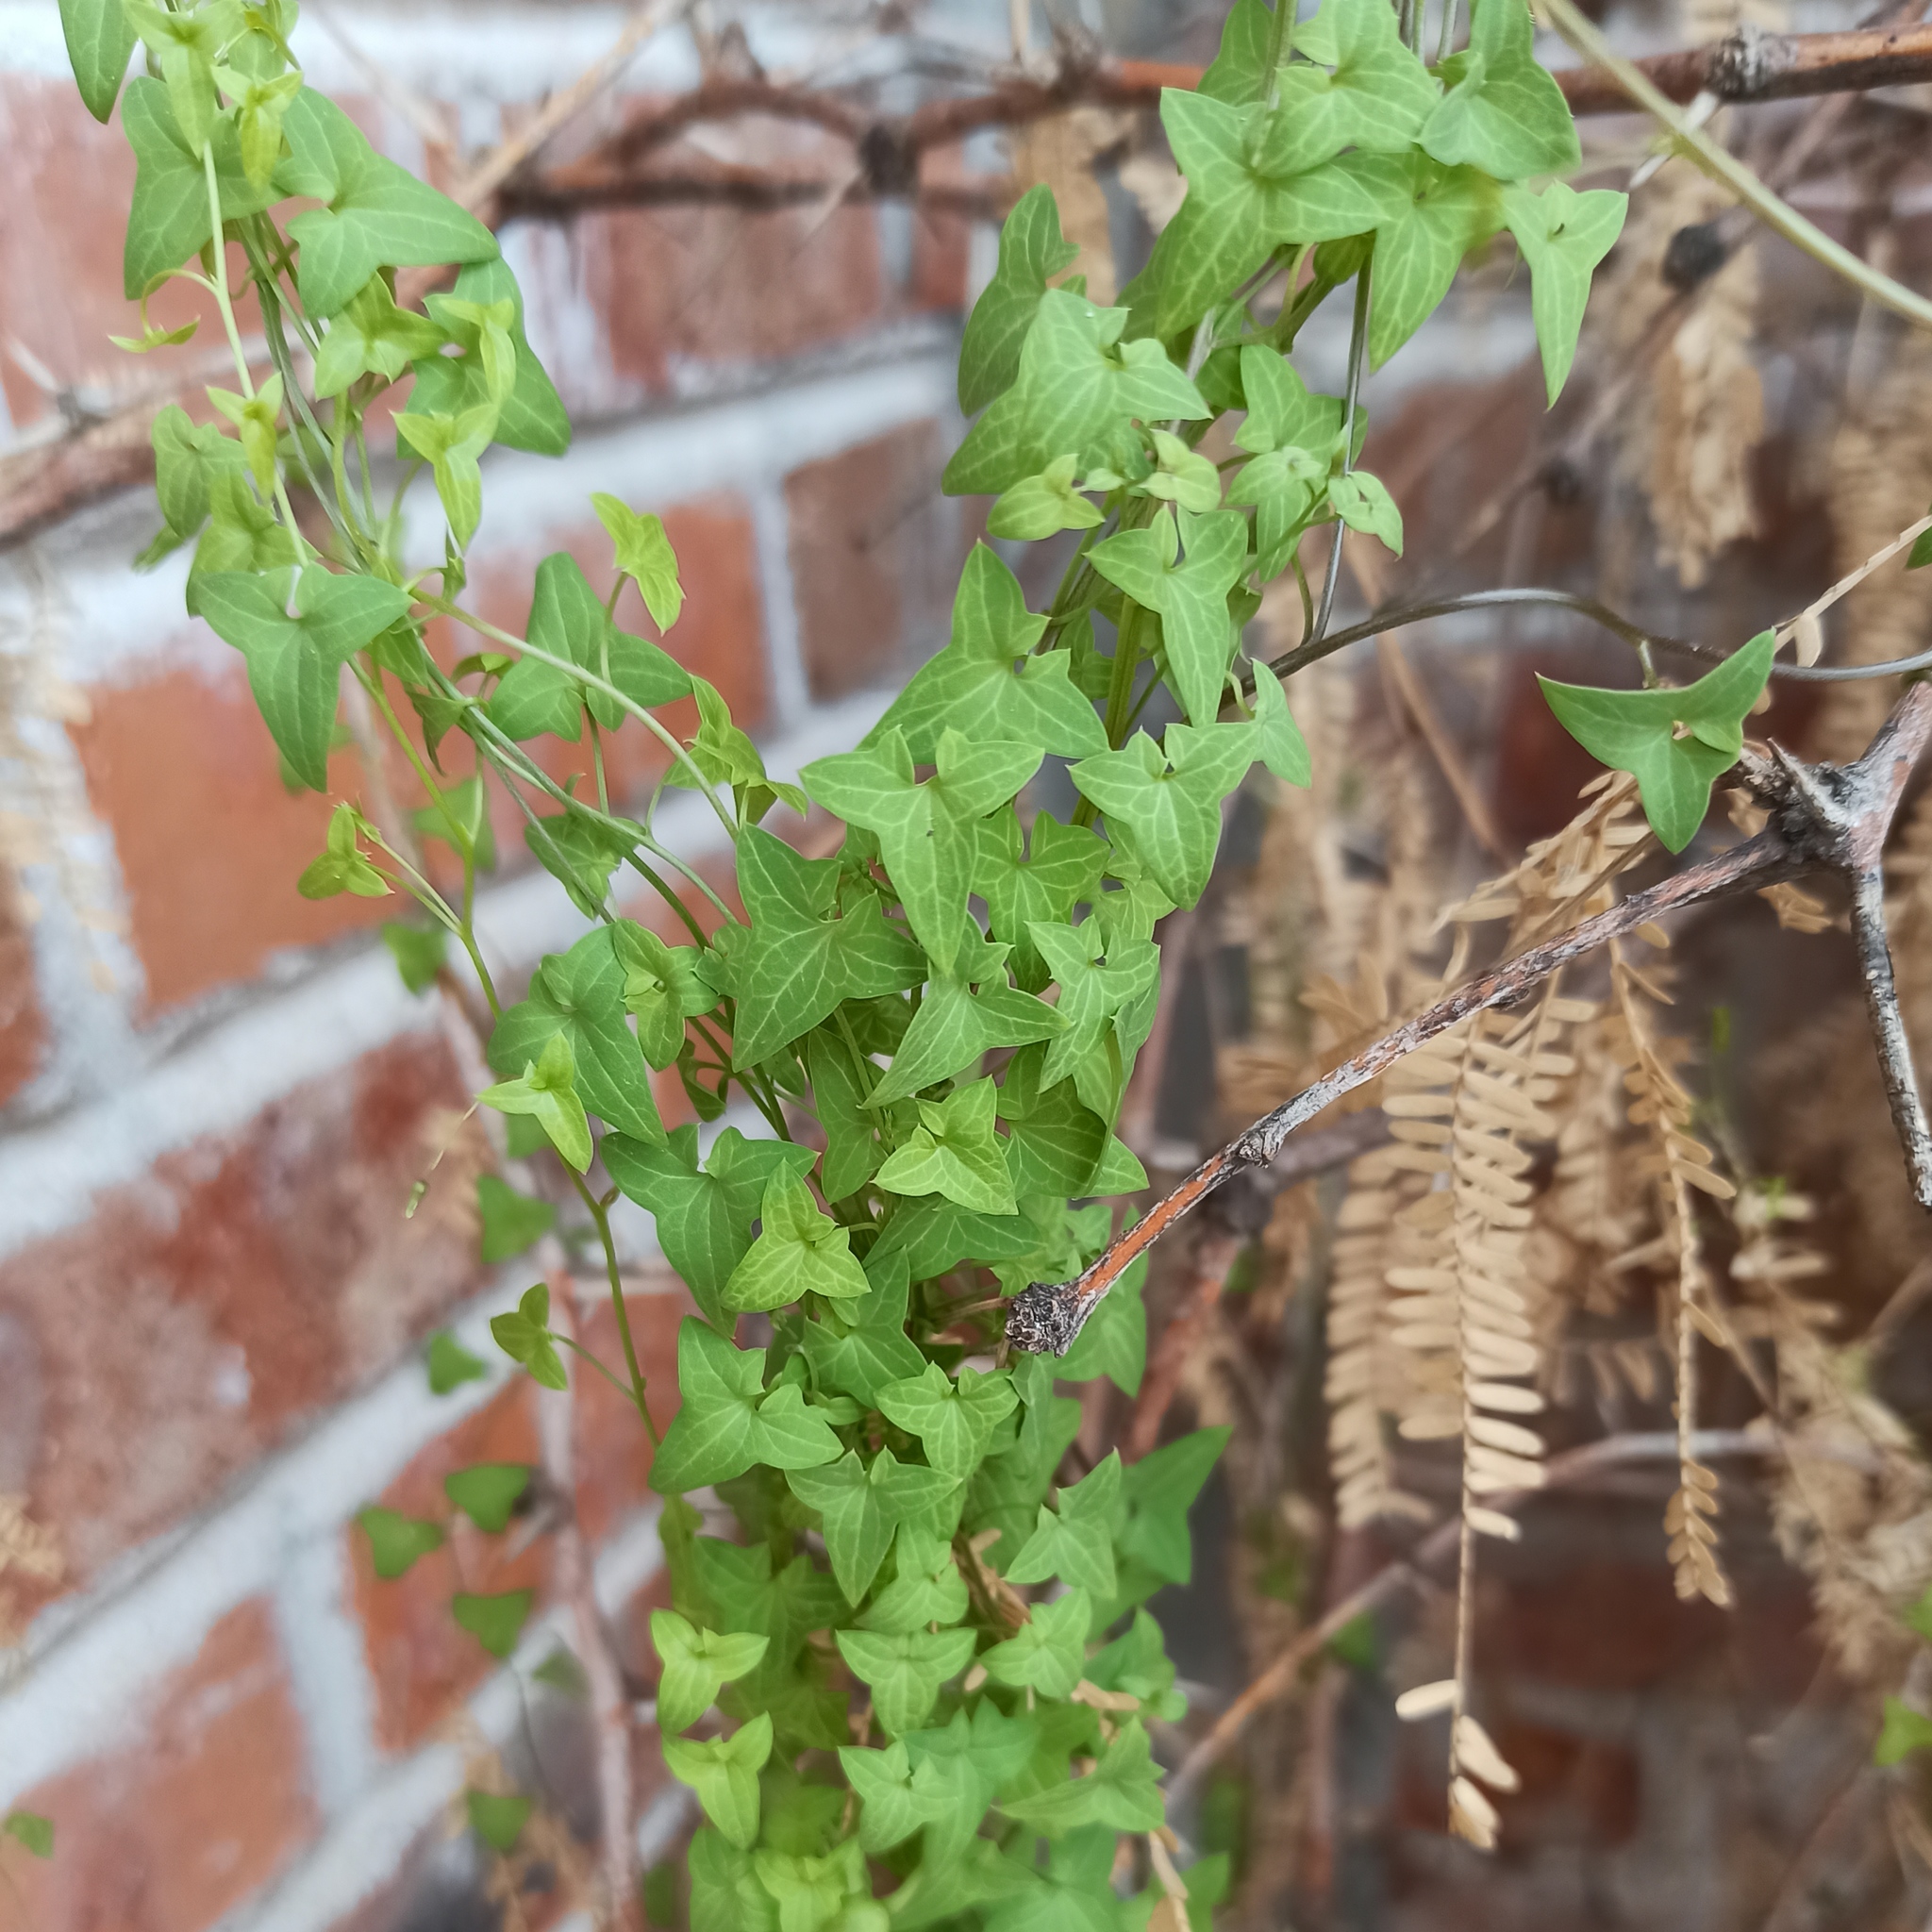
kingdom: Plantae
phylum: Tracheophyta
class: Magnoliopsida
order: Lamiales
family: Plantaginaceae
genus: Maurandella
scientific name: Maurandella antirrhiniflora
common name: Violet twining-snapdragon
